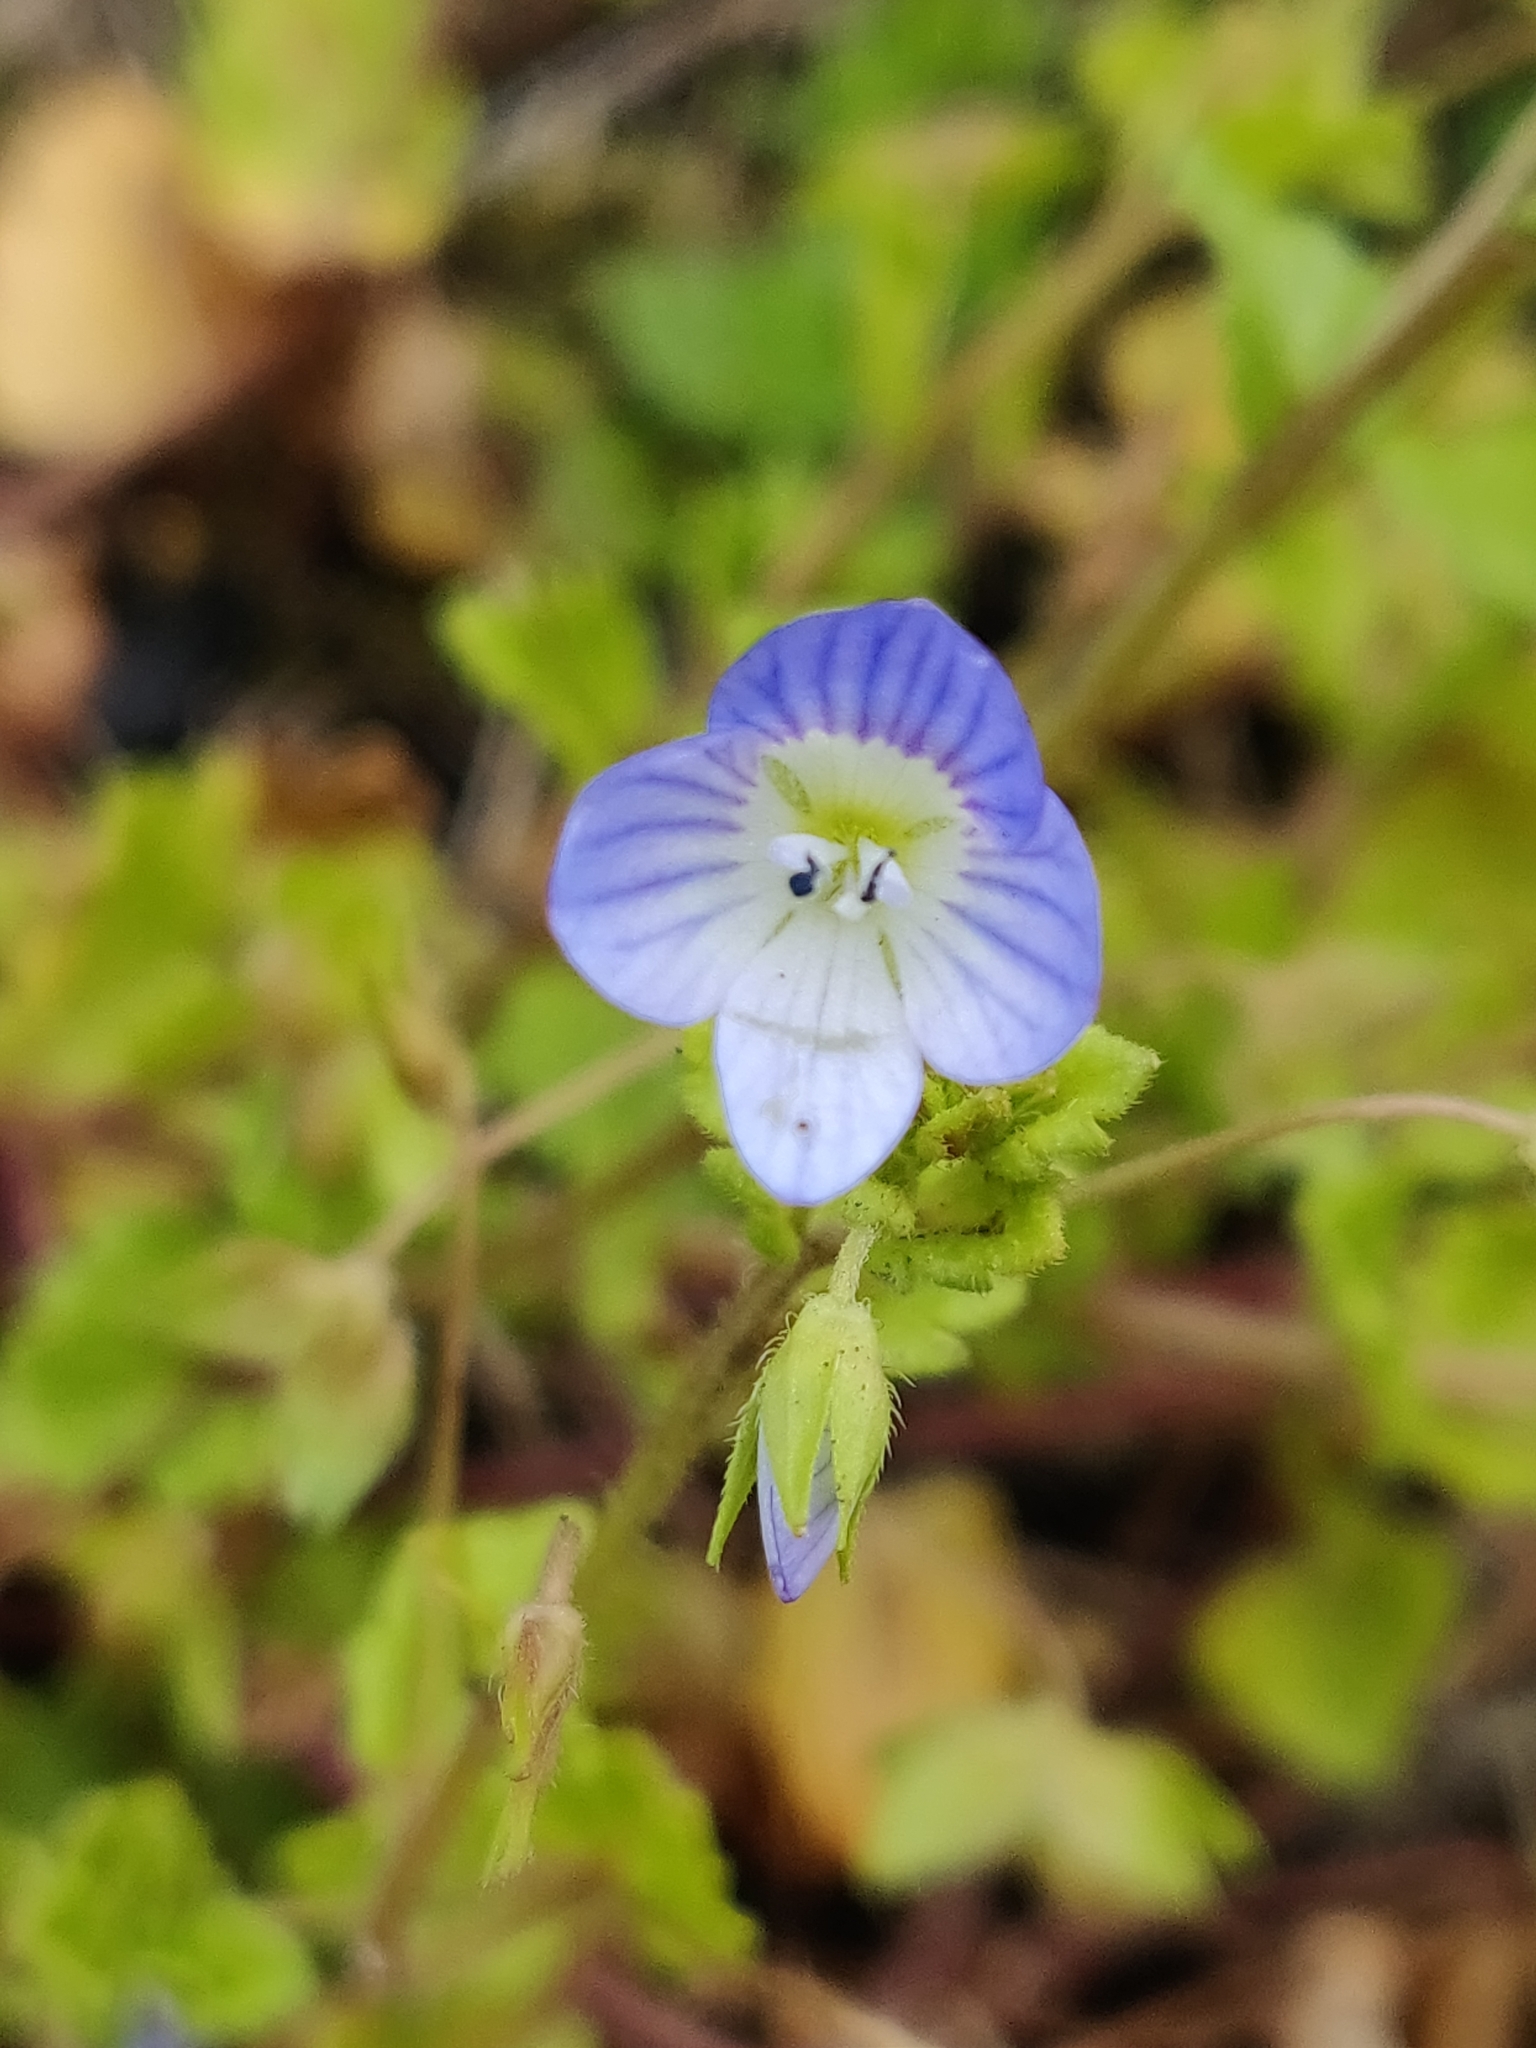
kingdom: Plantae
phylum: Tracheophyta
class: Magnoliopsida
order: Lamiales
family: Plantaginaceae
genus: Veronica
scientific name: Veronica persica
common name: Common field-speedwell
